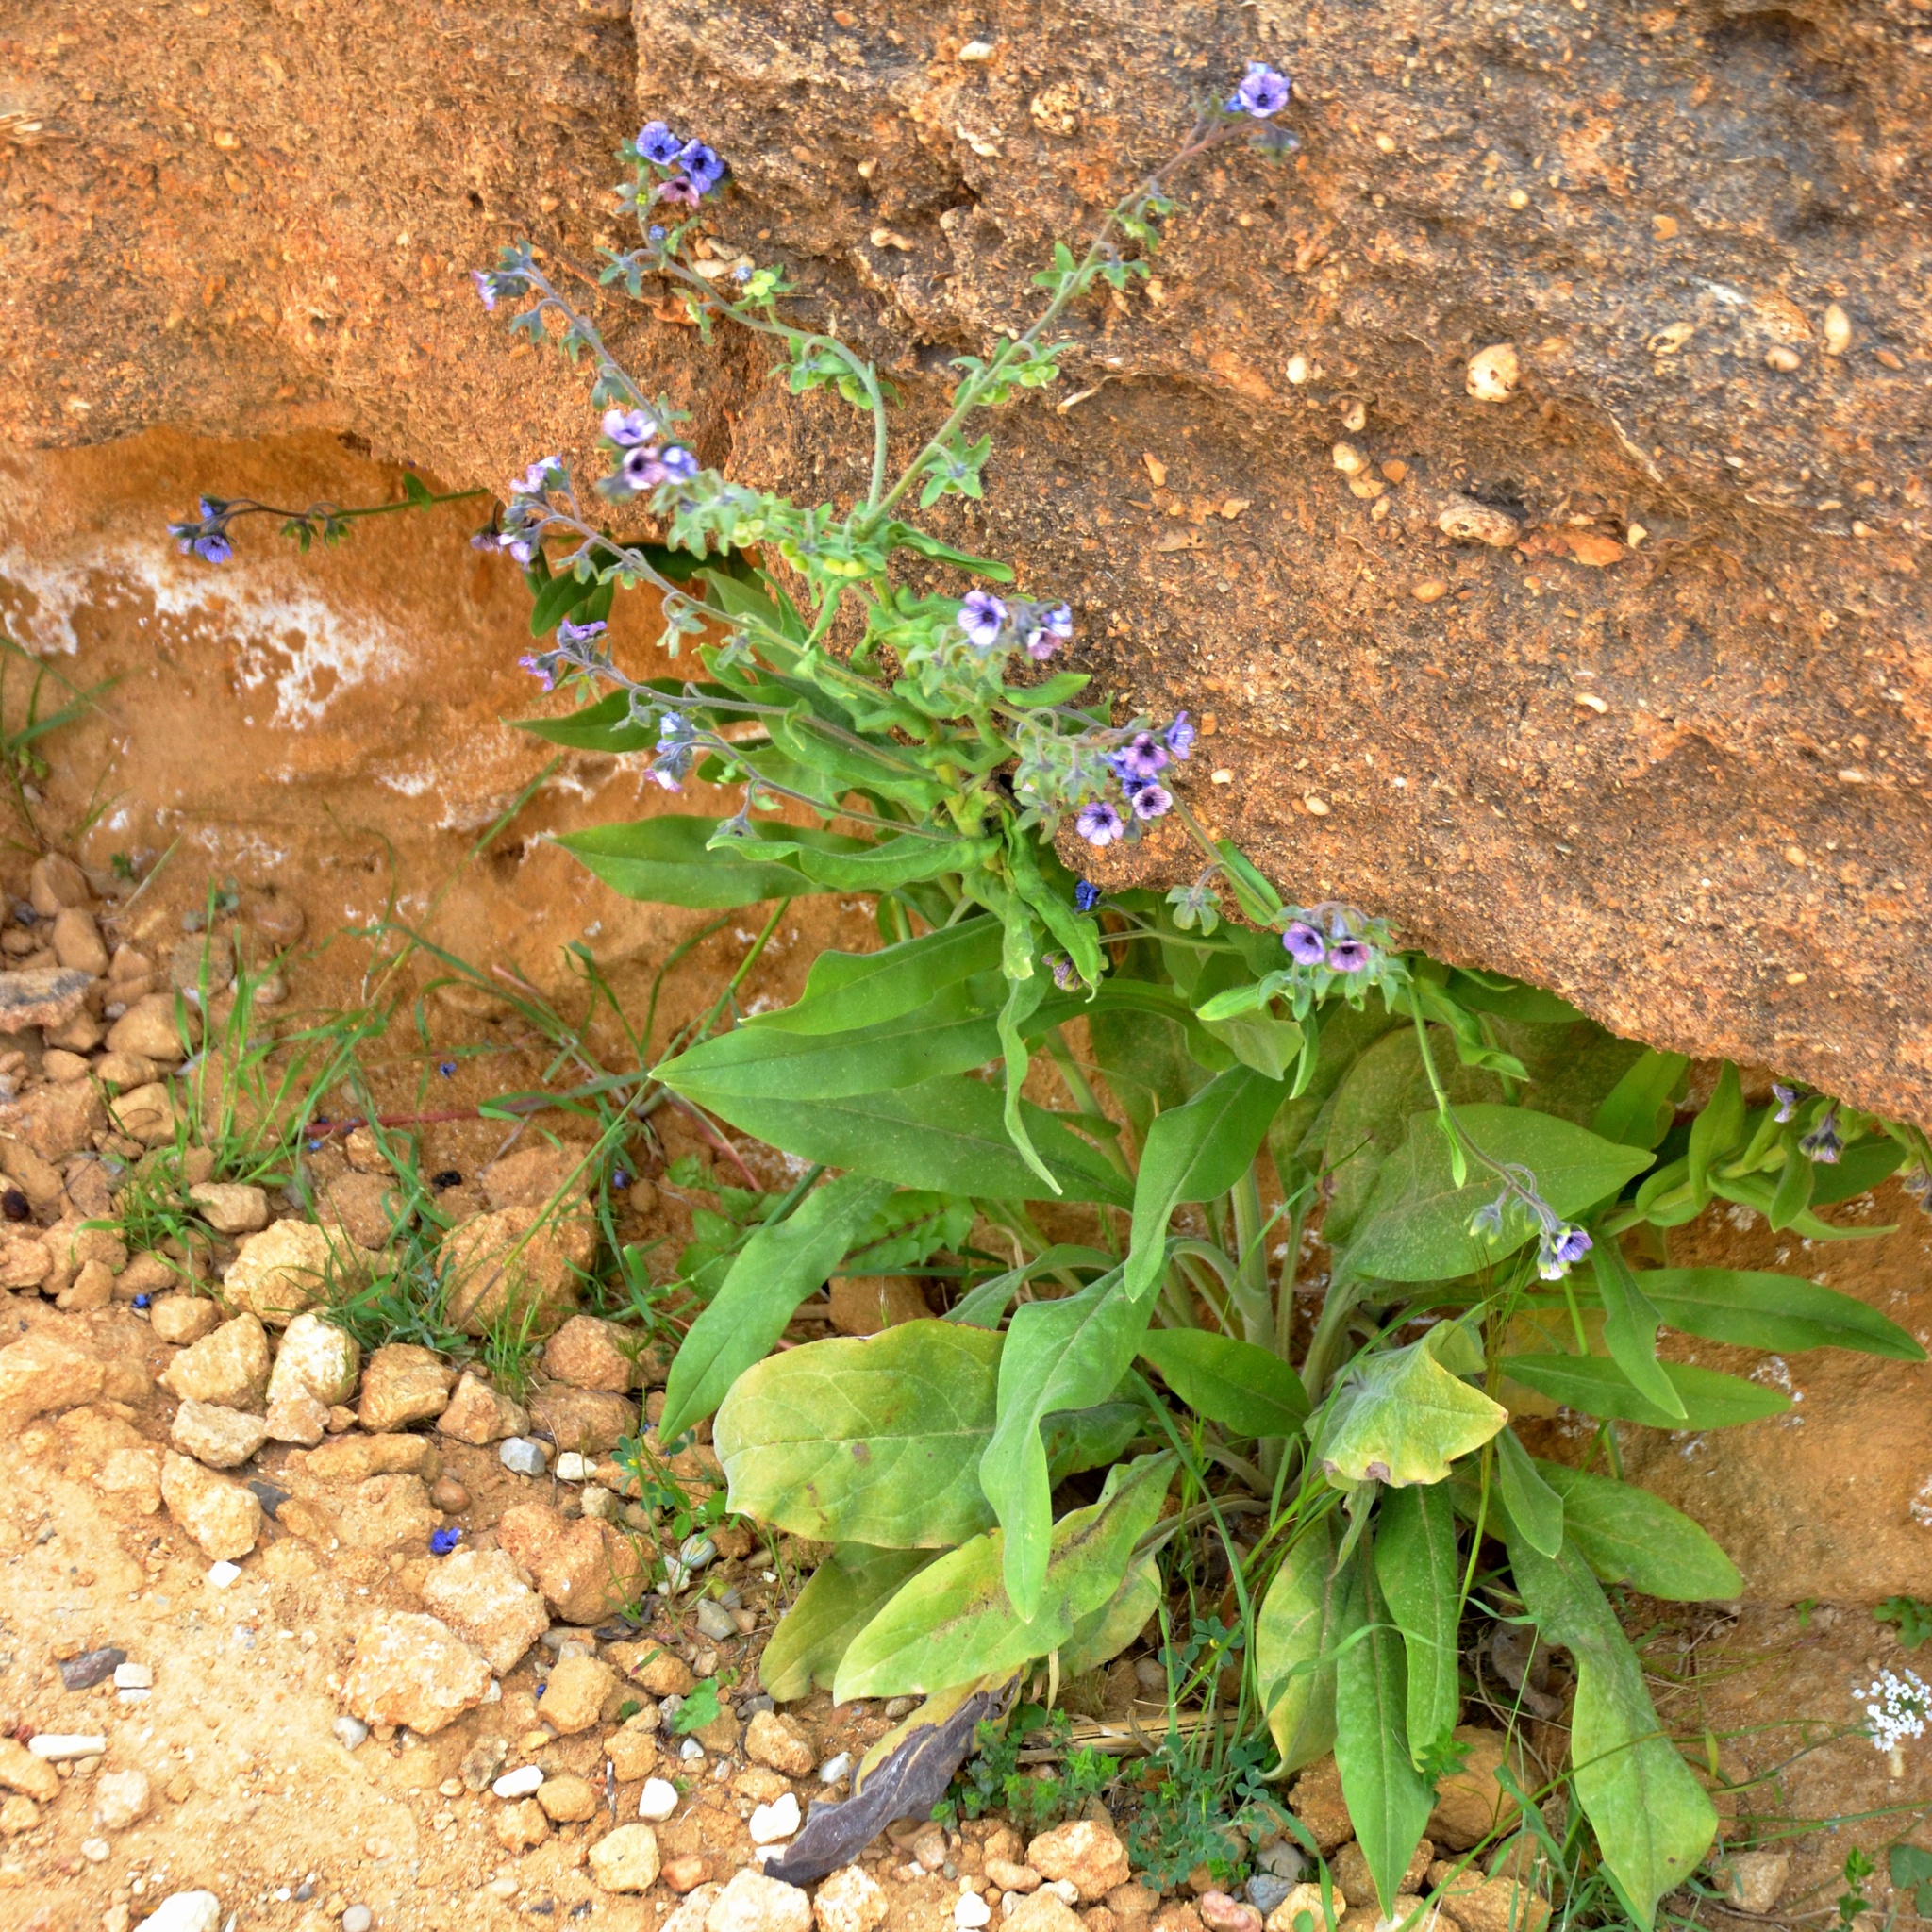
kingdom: Plantae
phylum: Tracheophyta
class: Magnoliopsida
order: Boraginales
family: Boraginaceae
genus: Cynoglossum
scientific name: Cynoglossum creticum
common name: Blue hound's tongue
